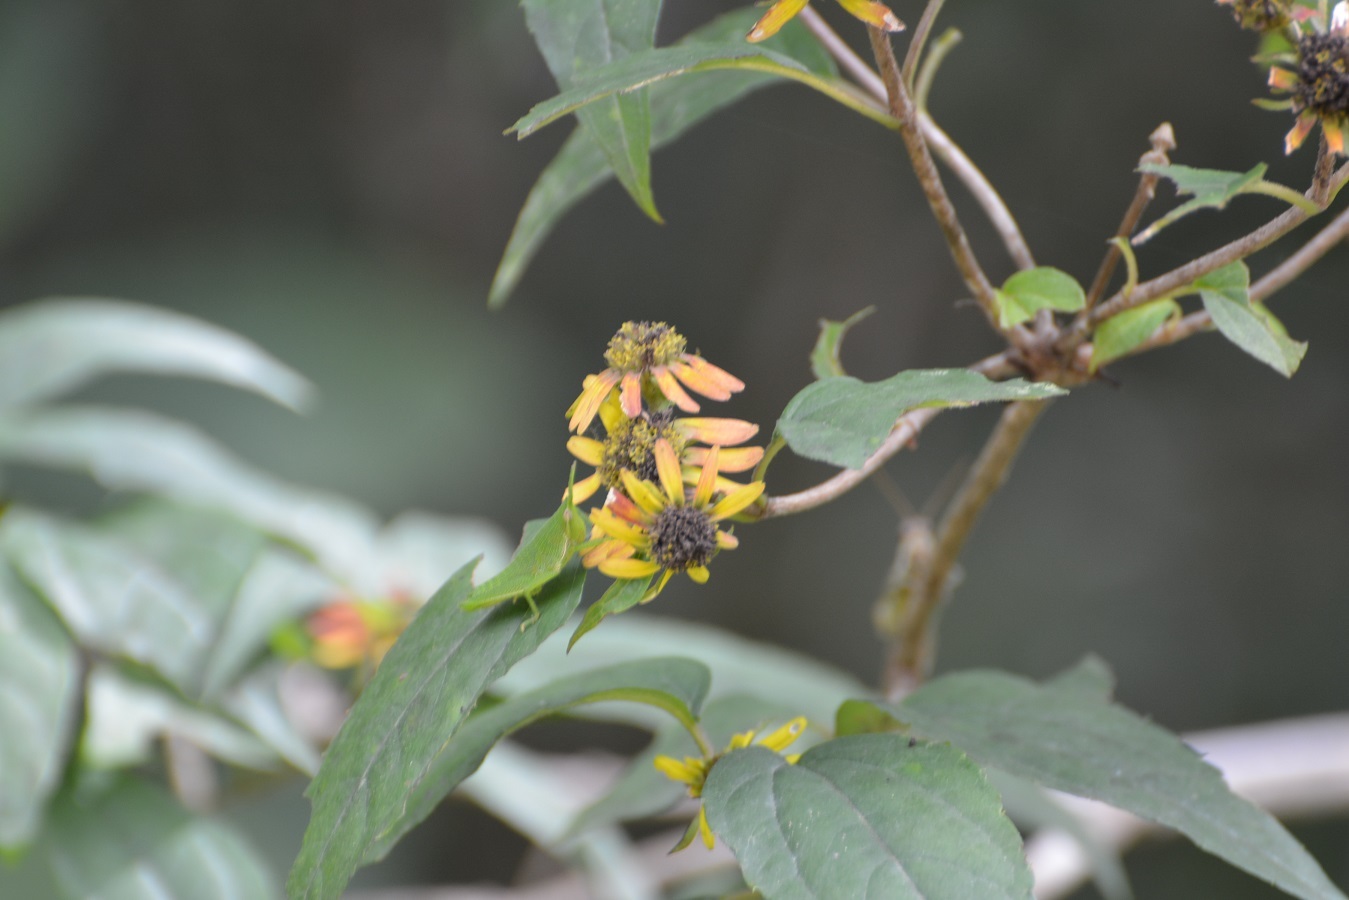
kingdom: Plantae
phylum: Tracheophyta
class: Magnoliopsida
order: Asterales
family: Asteraceae
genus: Philactis
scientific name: Philactis zinnioides
